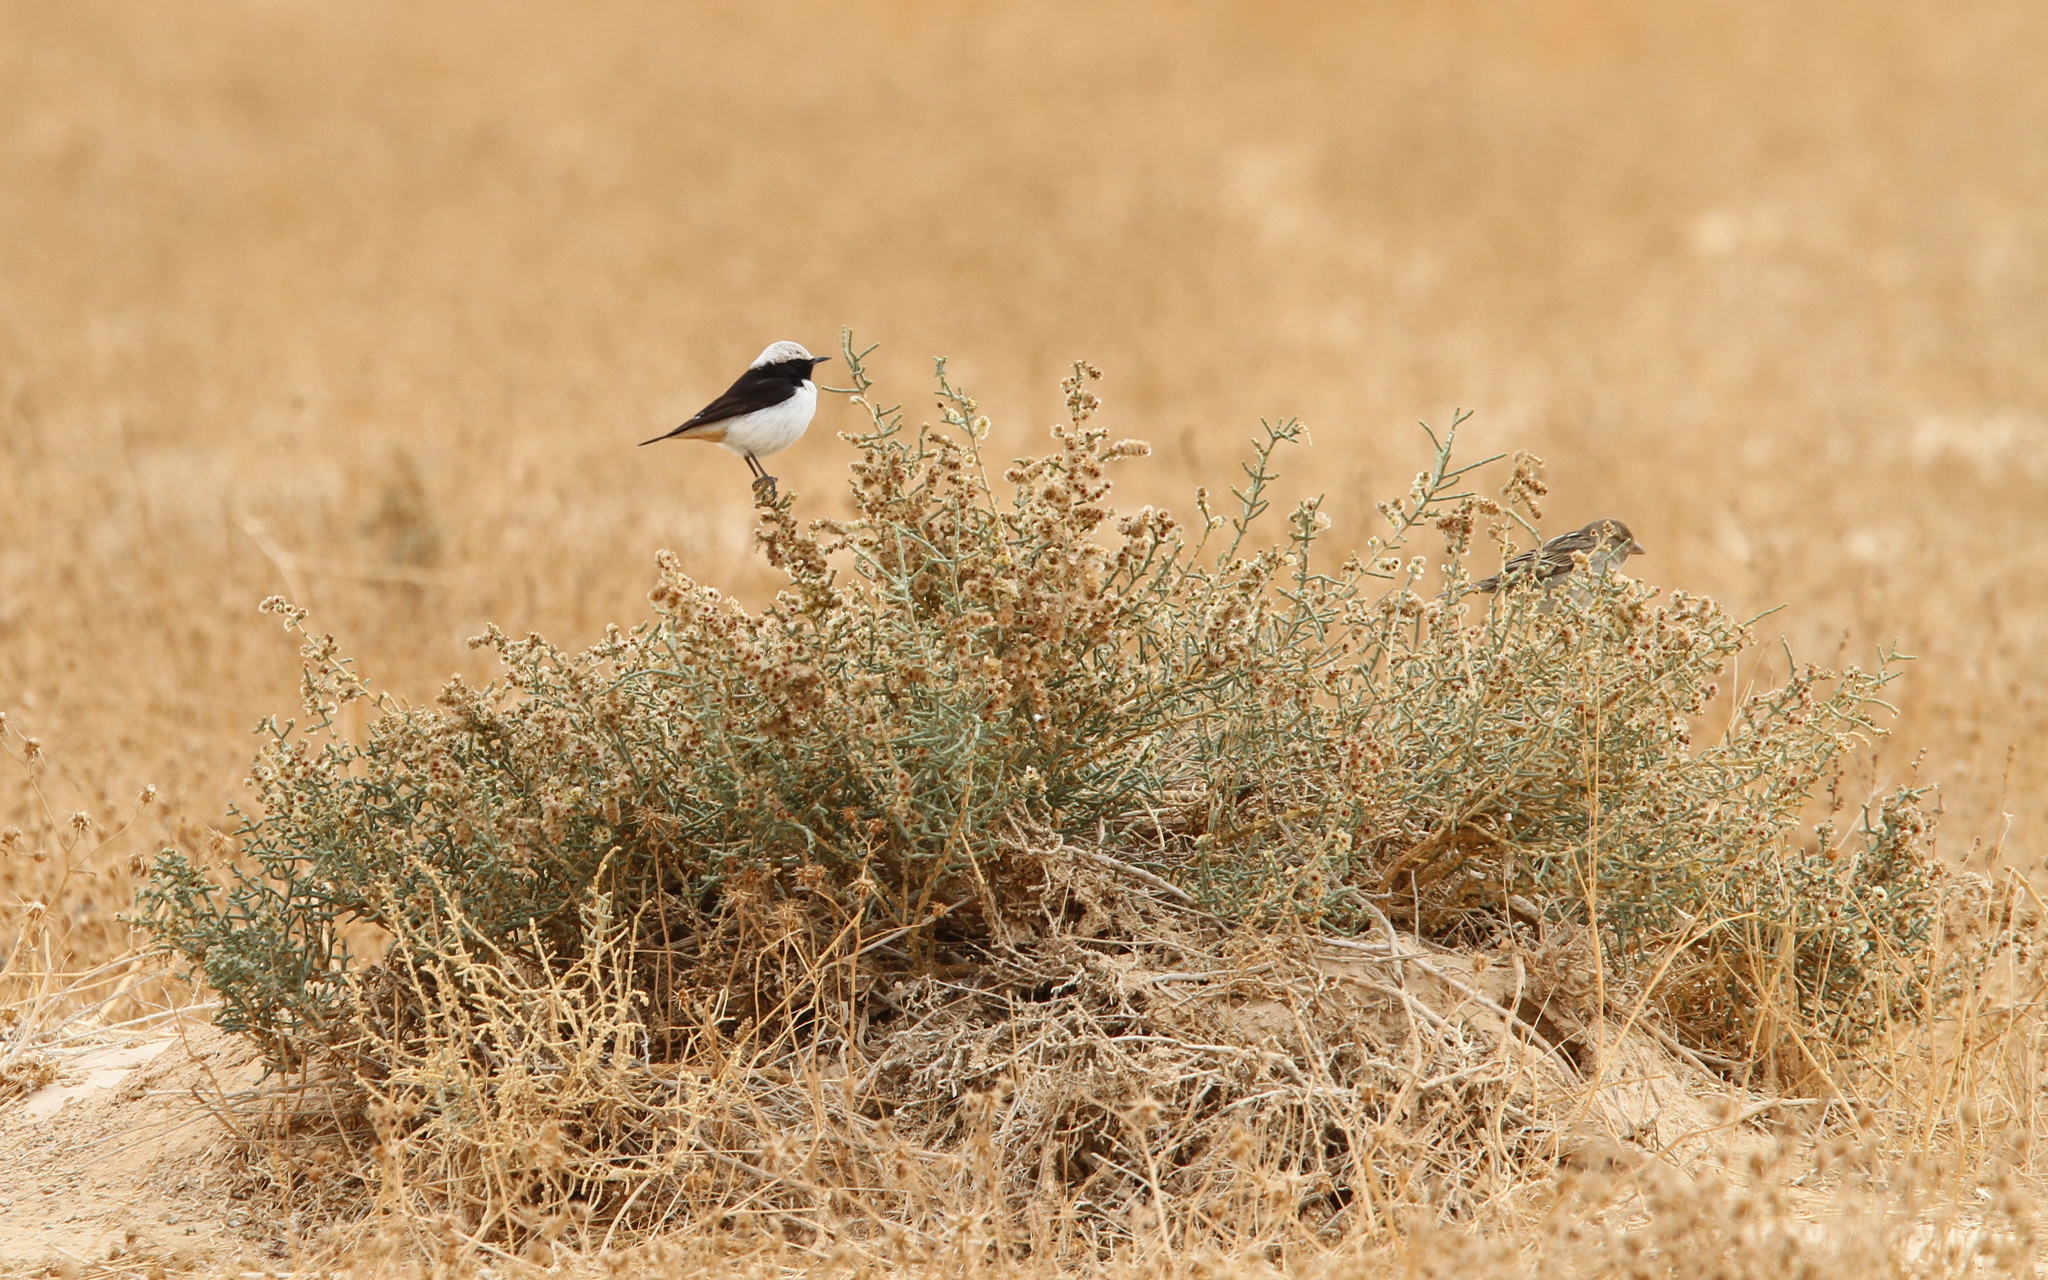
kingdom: Animalia
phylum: Chordata
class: Aves
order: Passeriformes
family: Muscicapidae
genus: Oenanthe
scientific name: Oenanthe lugens
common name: Mourning wheatear
